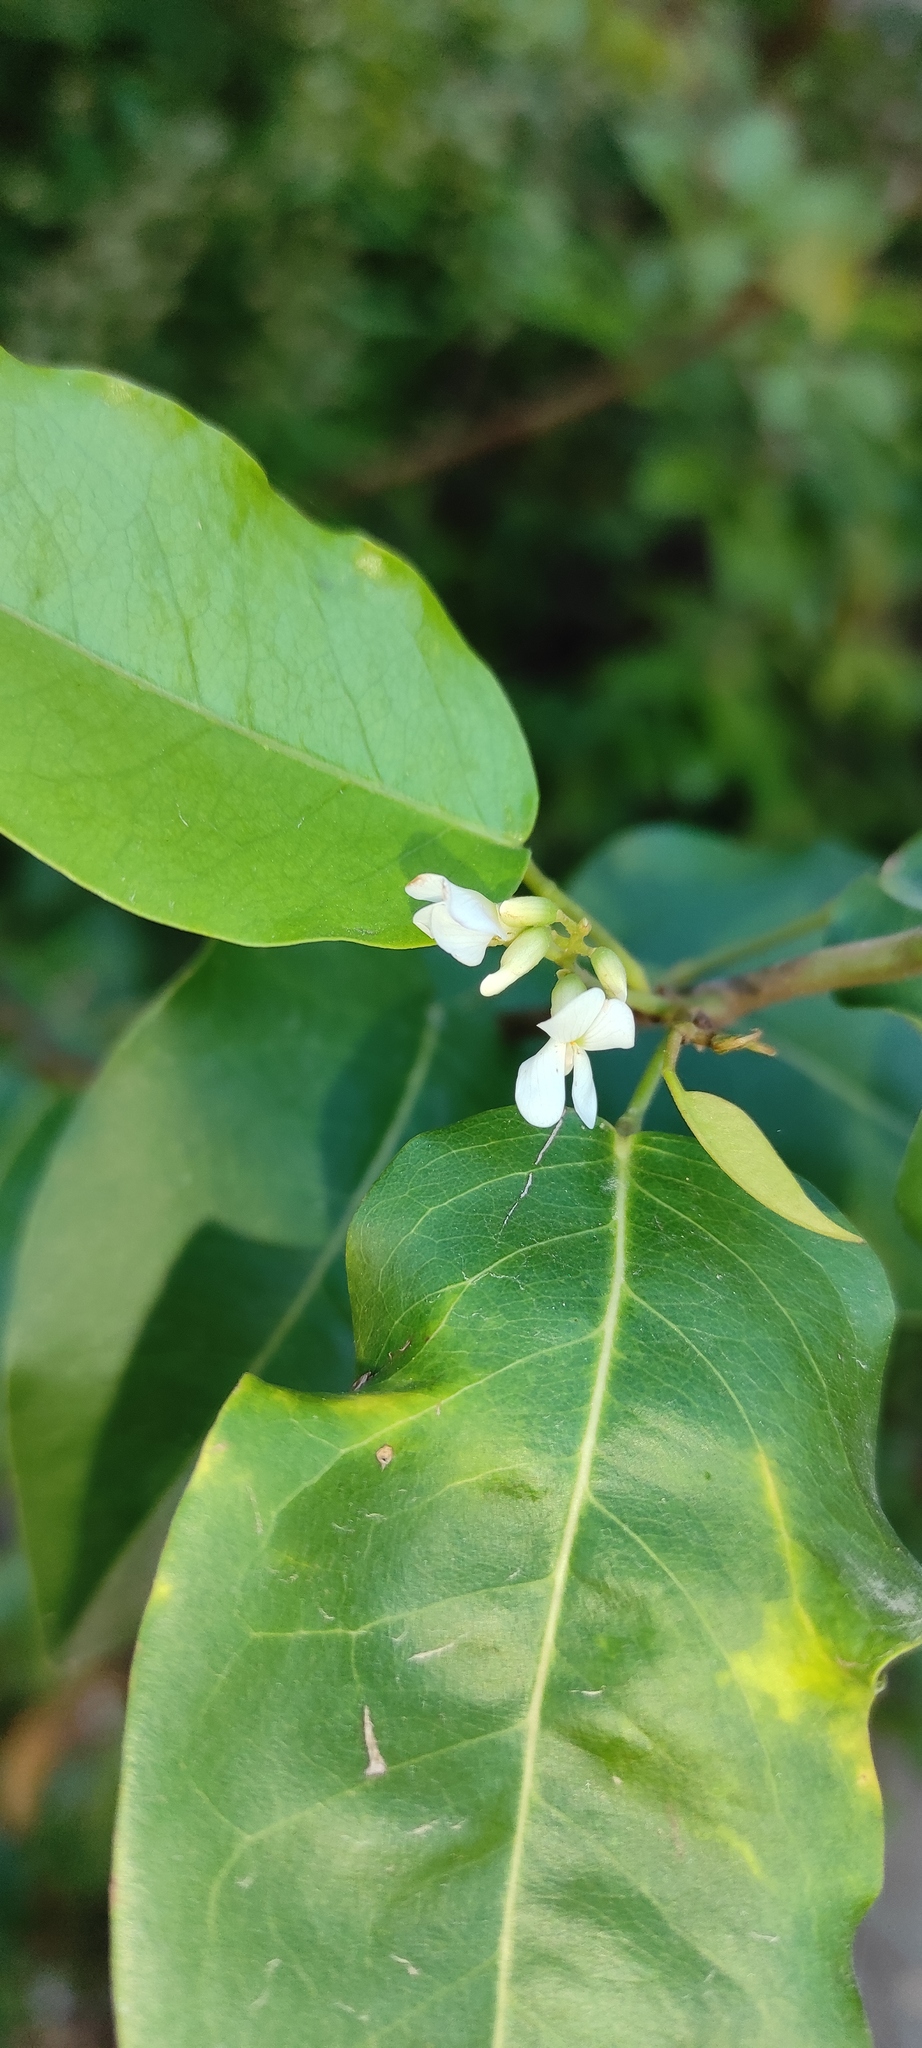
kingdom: Plantae
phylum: Tracheophyta
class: Magnoliopsida
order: Fabales
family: Fabaceae
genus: Dalbergia
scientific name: Dalbergia ecastaphyllum
